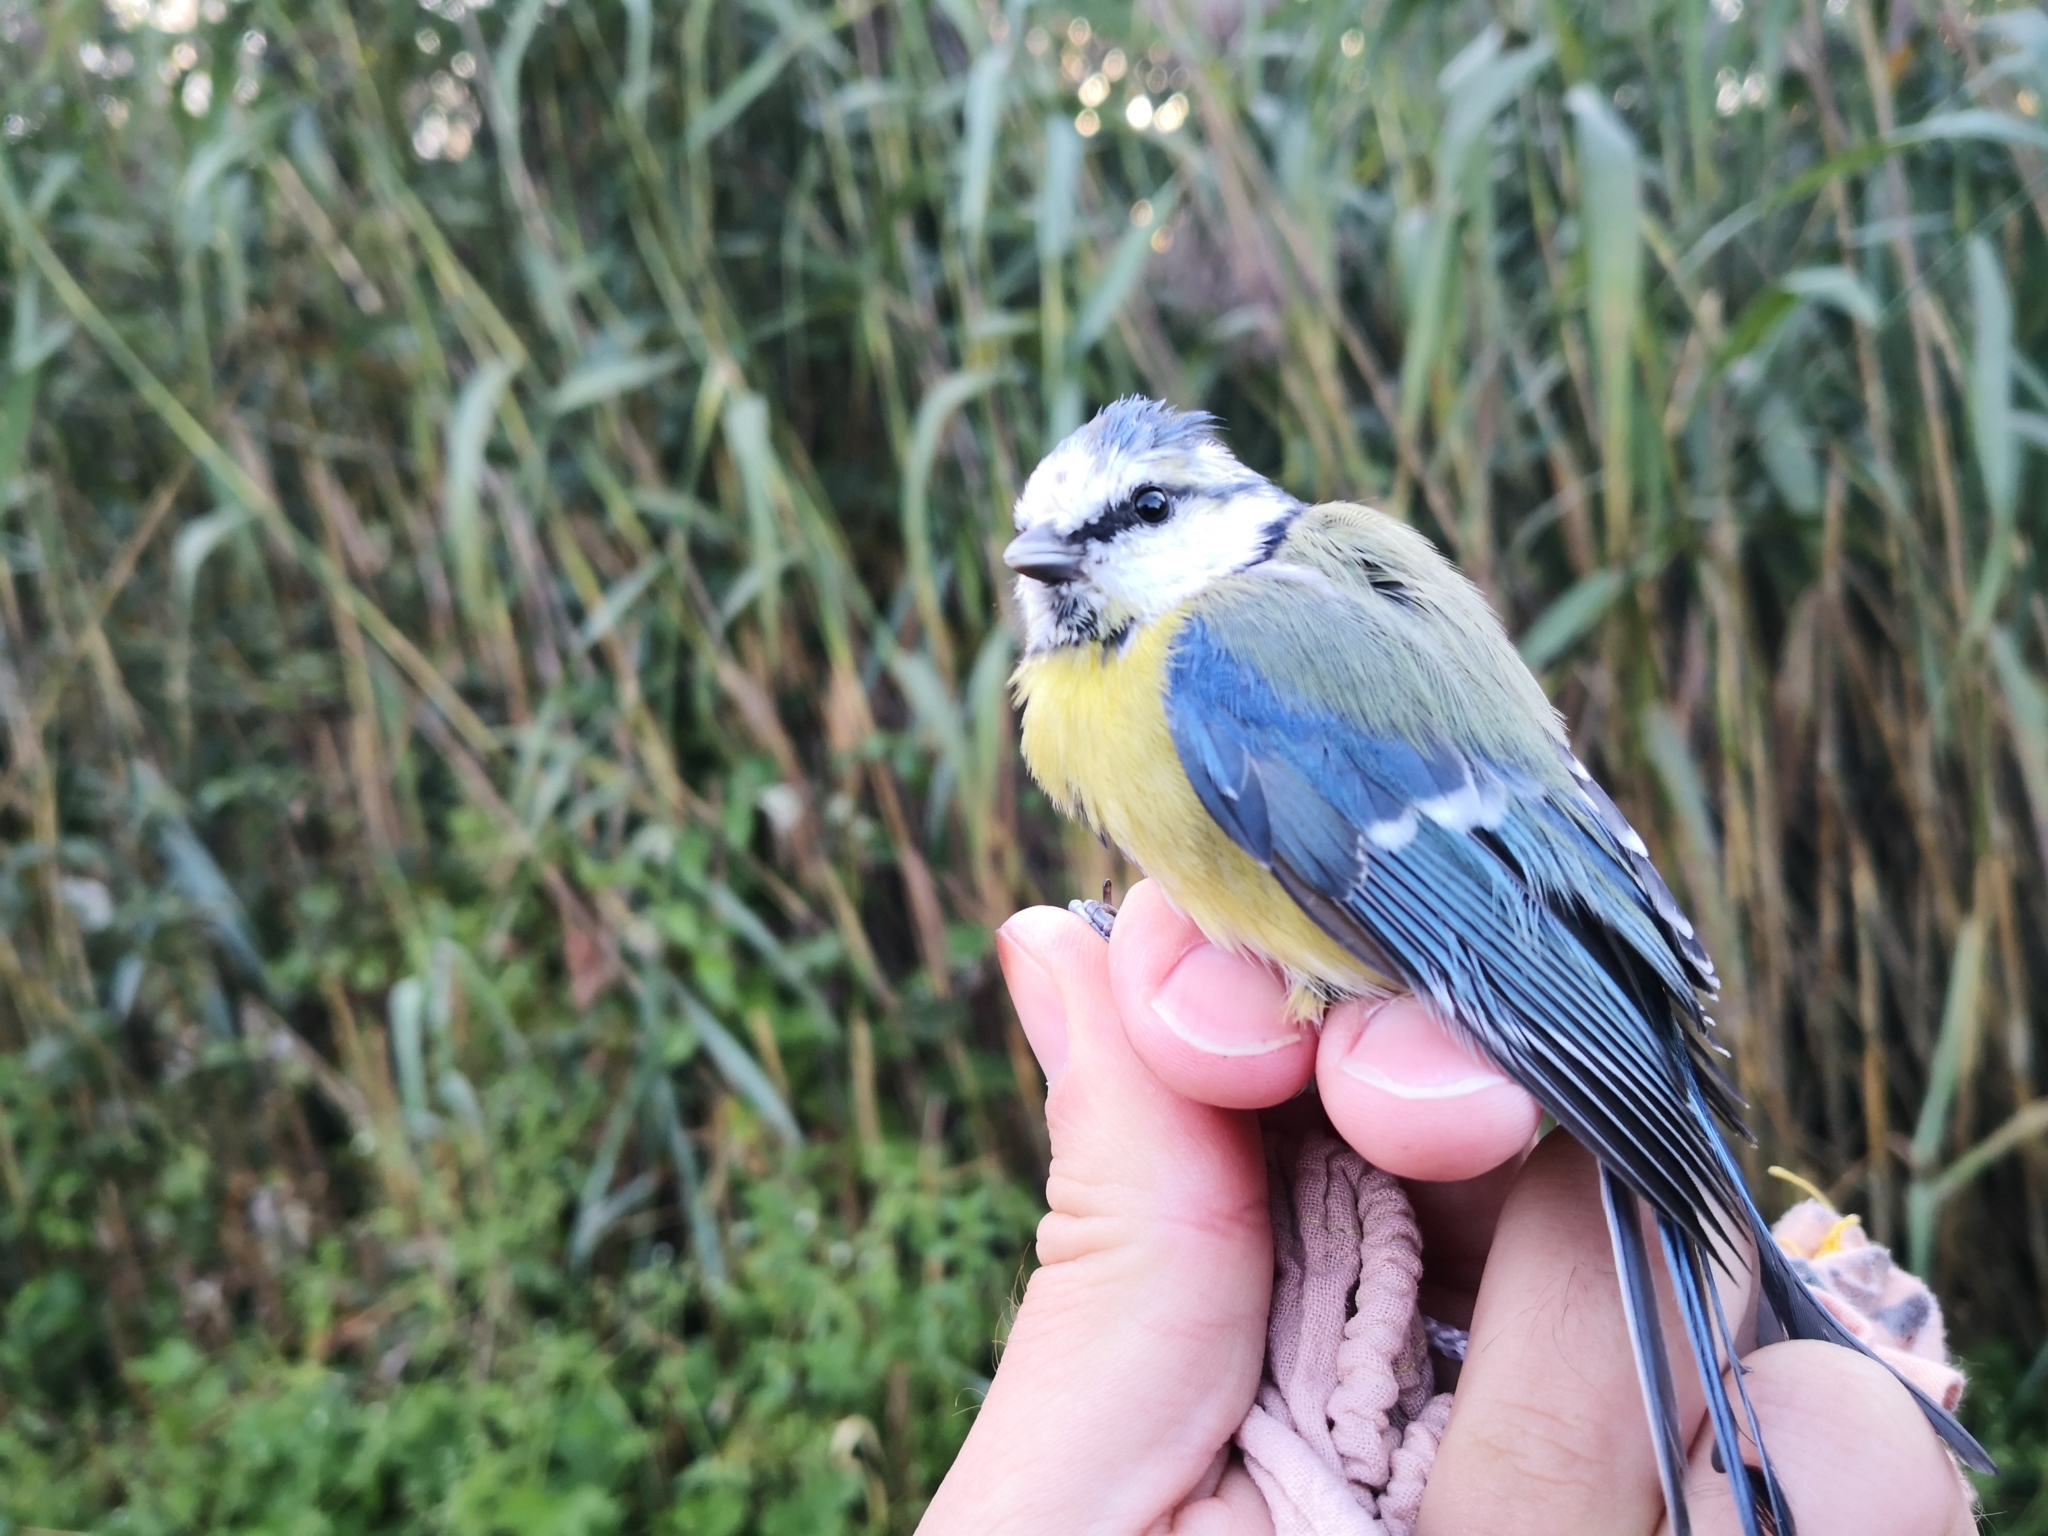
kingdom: Animalia
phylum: Chordata
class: Aves
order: Passeriformes
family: Paridae
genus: Cyanistes
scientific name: Cyanistes caeruleus
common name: Eurasian blue tit
